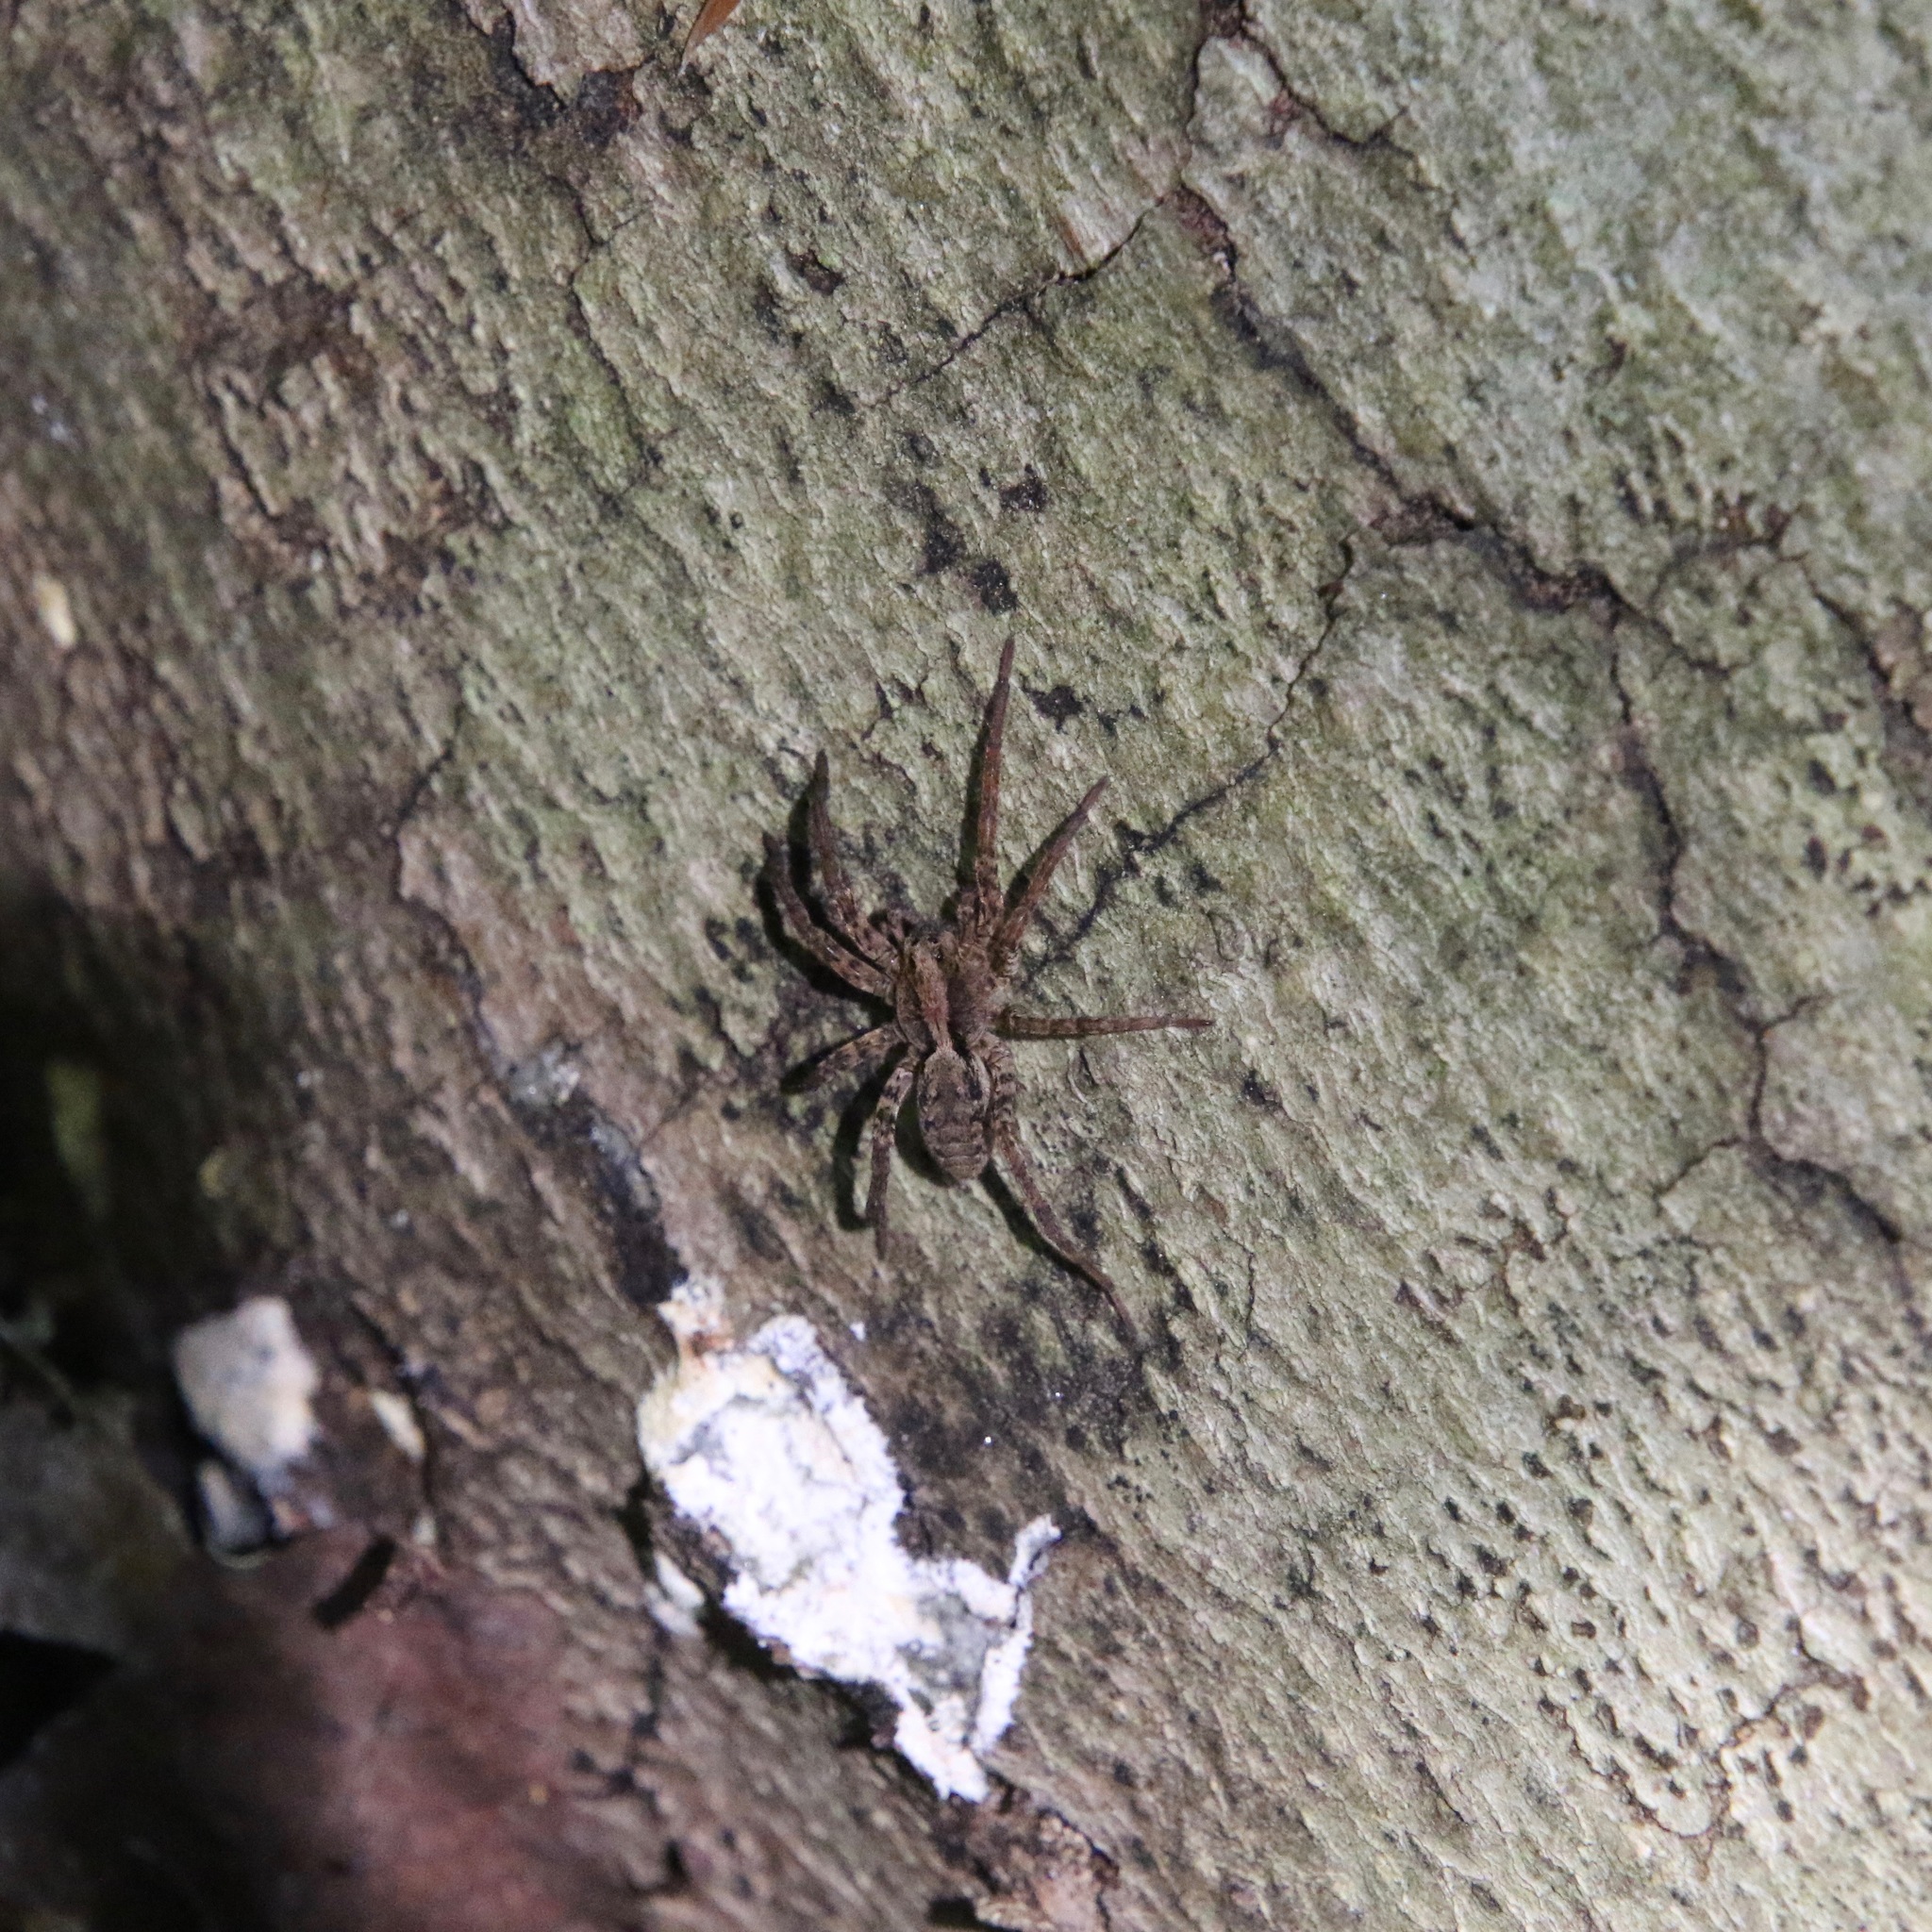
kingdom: Animalia
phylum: Arthropoda
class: Arachnida
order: Araneae
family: Lycosidae
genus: Gladicosa
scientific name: Gladicosa gulosa
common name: Drumming sword wolf spider
